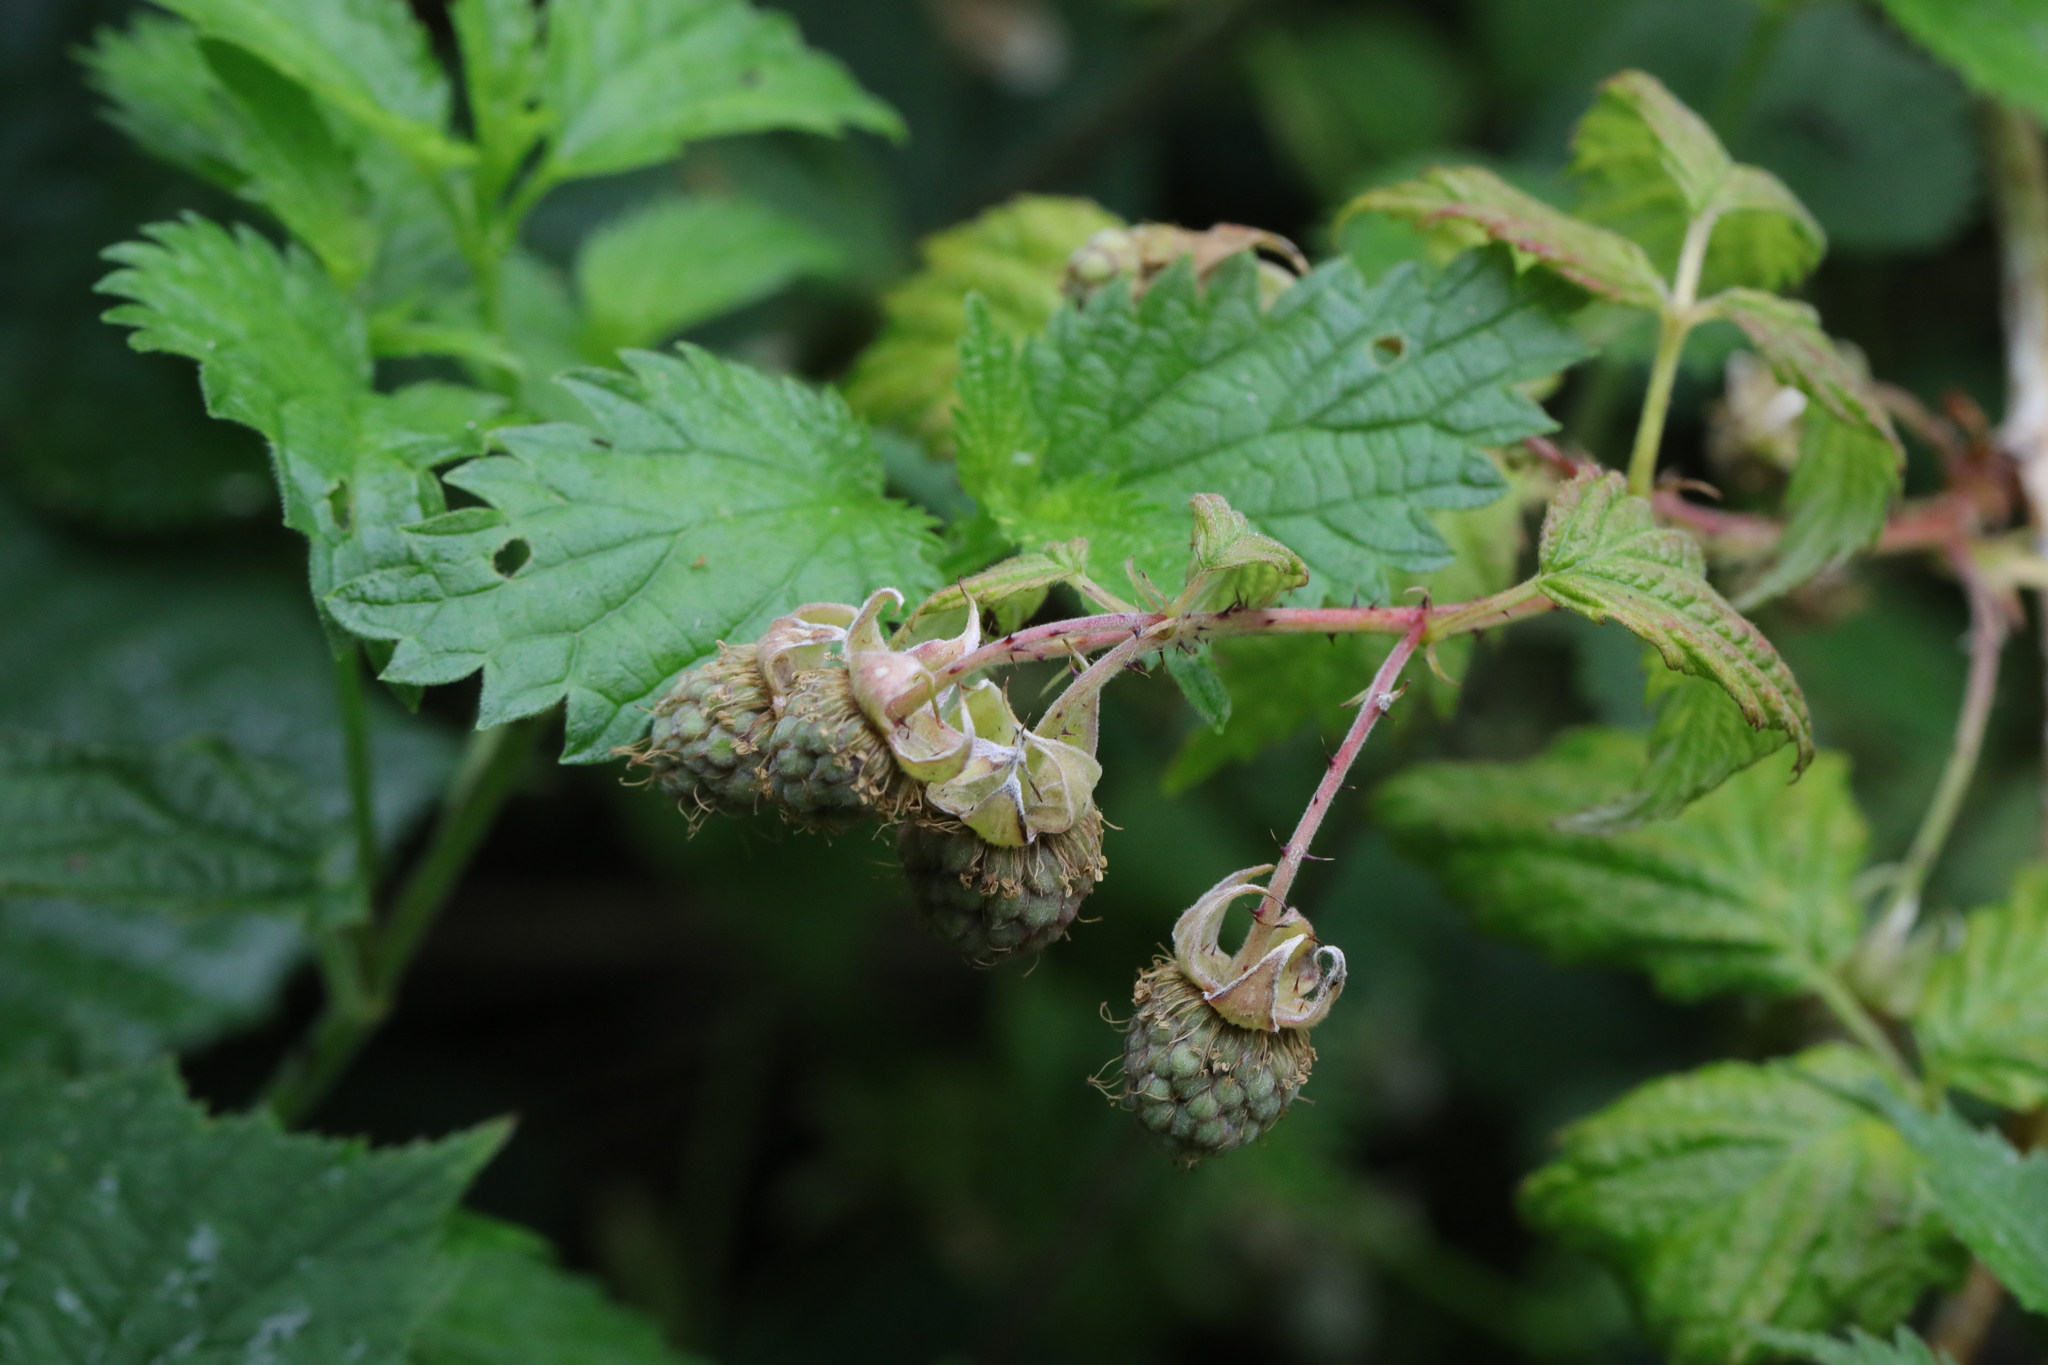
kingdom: Plantae
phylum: Tracheophyta
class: Magnoliopsida
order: Rosales
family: Rosaceae
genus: Rubus
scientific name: Rubus idaeus
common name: Raspberry
